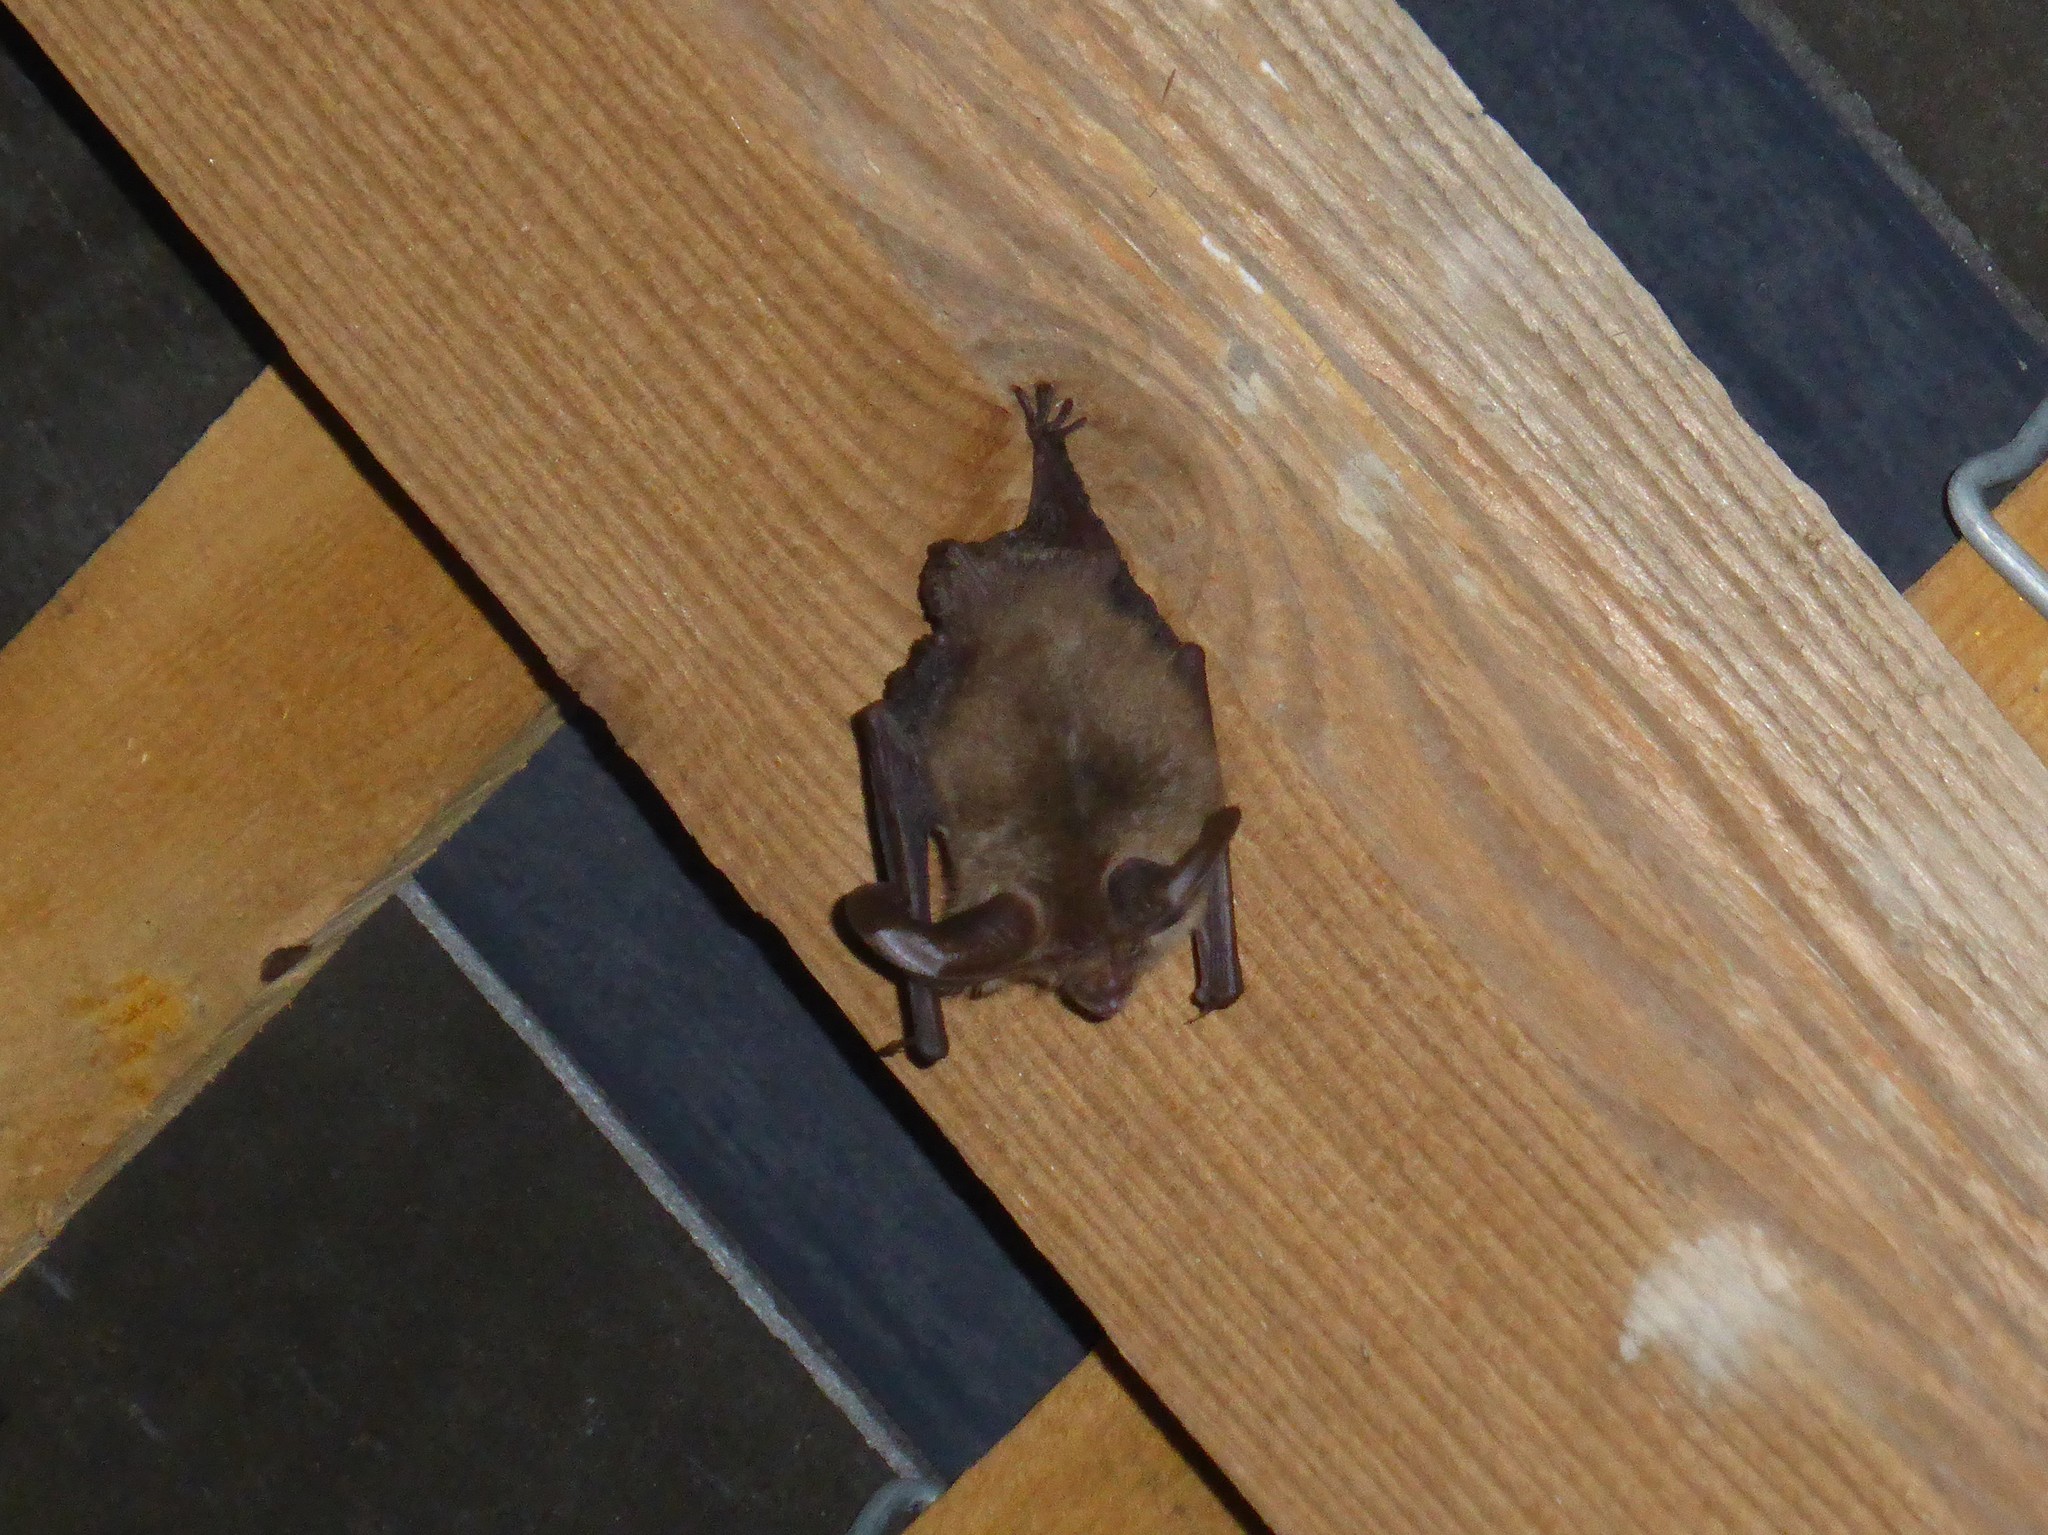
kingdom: Animalia
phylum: Chordata
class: Mammalia
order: Chiroptera
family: Vespertilionidae
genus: Plecotus
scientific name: Plecotus auritus
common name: Brown long-eared bat
